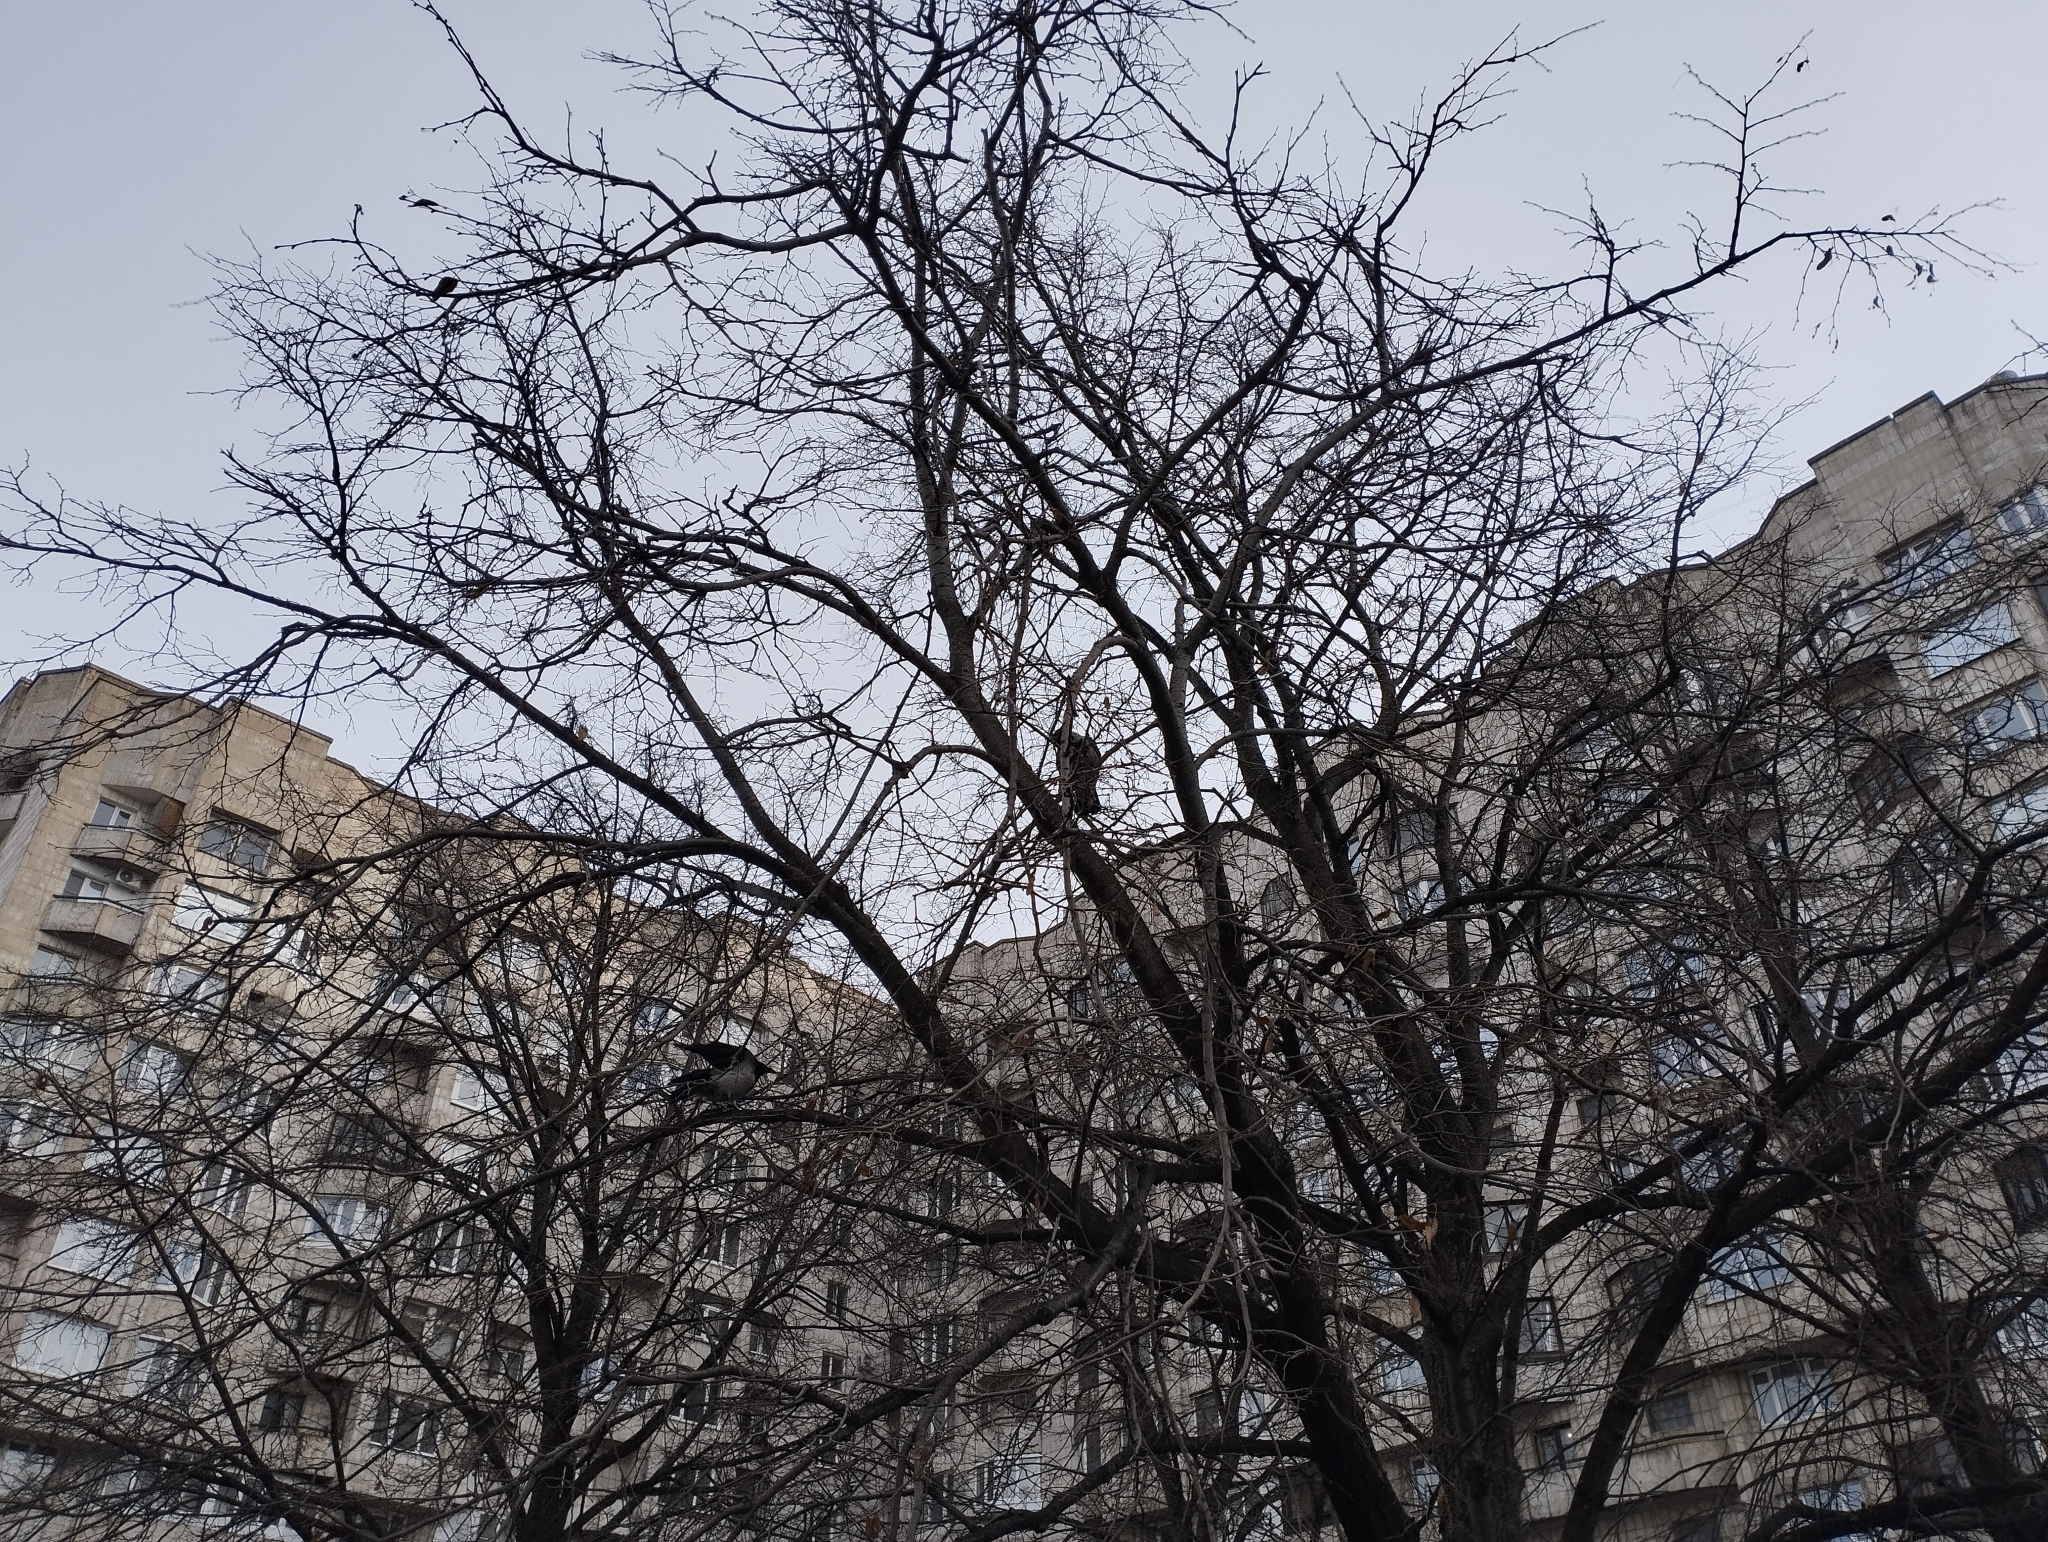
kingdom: Animalia
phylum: Chordata
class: Aves
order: Passeriformes
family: Corvidae
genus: Corvus
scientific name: Corvus cornix
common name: Hooded crow
